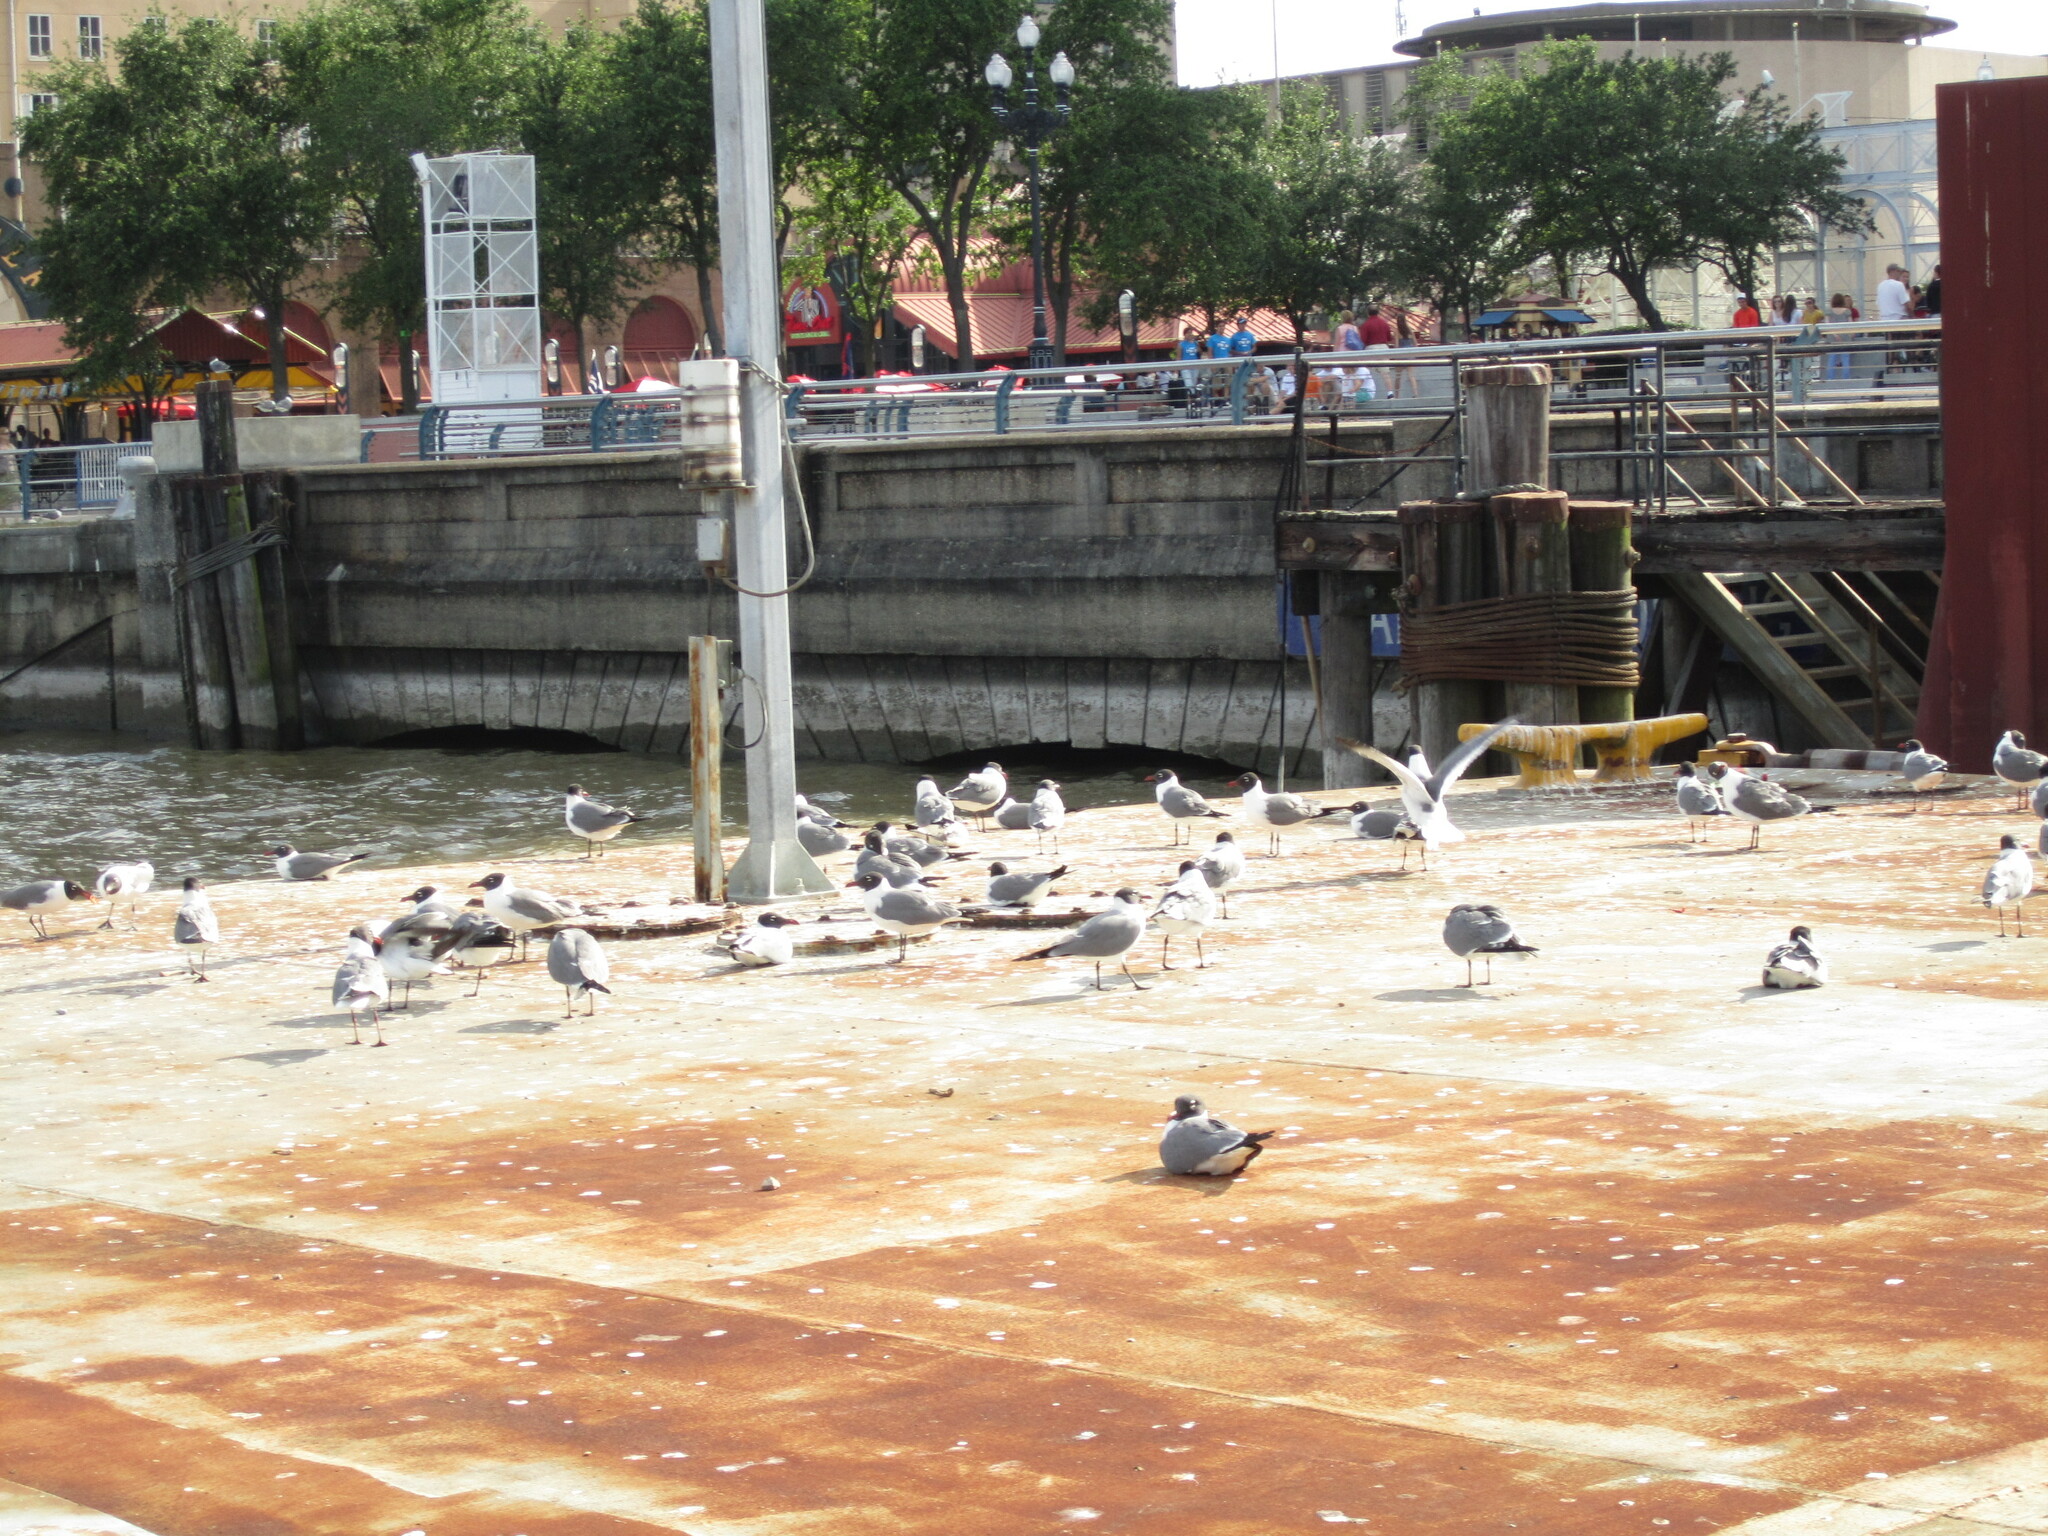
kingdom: Animalia
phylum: Chordata
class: Aves
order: Charadriiformes
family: Laridae
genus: Leucophaeus
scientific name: Leucophaeus atricilla
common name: Laughing gull
